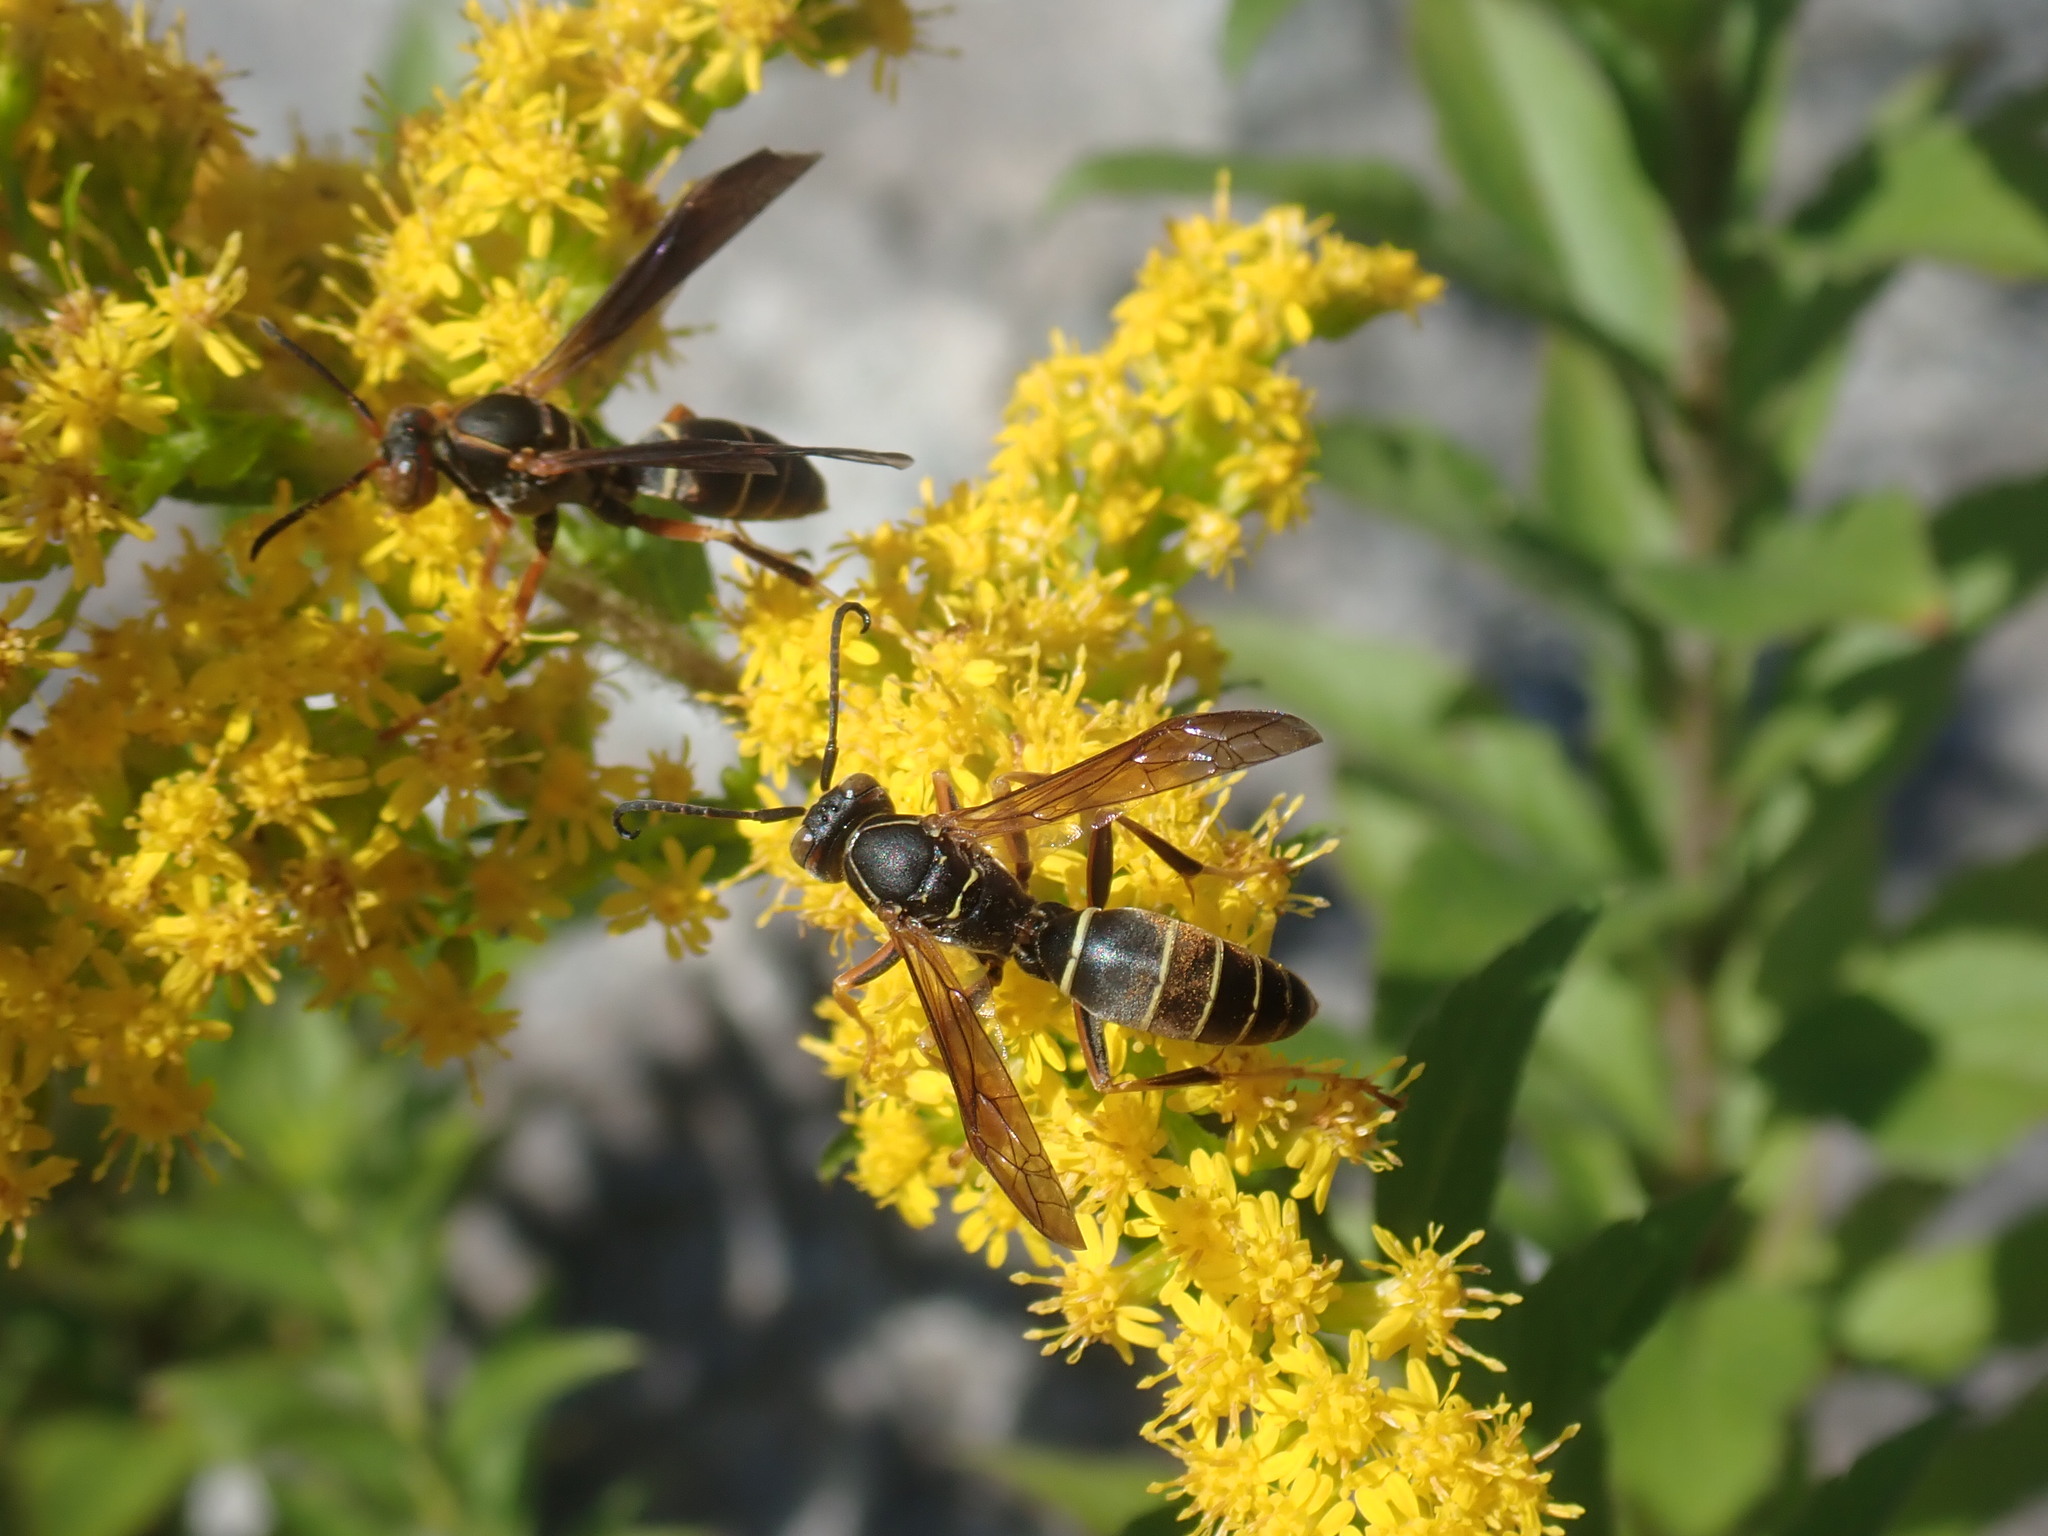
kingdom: Animalia
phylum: Arthropoda
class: Insecta
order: Hymenoptera
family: Eumenidae
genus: Polistes
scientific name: Polistes fuscatus
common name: Dark paper wasp
